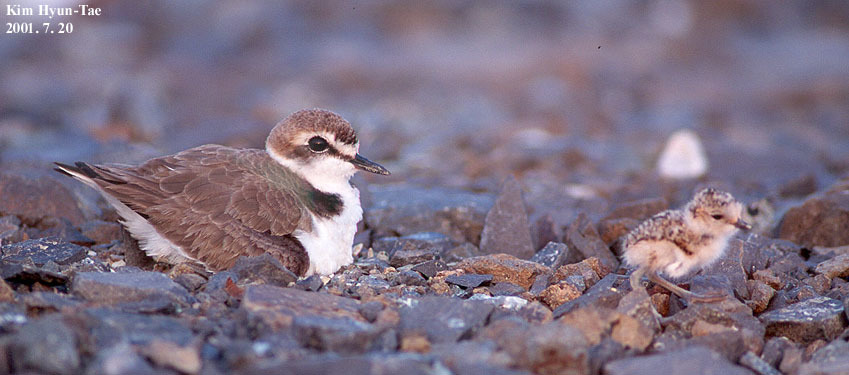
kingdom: Animalia
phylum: Chordata
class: Aves
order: Charadriiformes
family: Charadriidae
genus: Charadrius
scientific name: Charadrius alexandrinus
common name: Kentish plover
